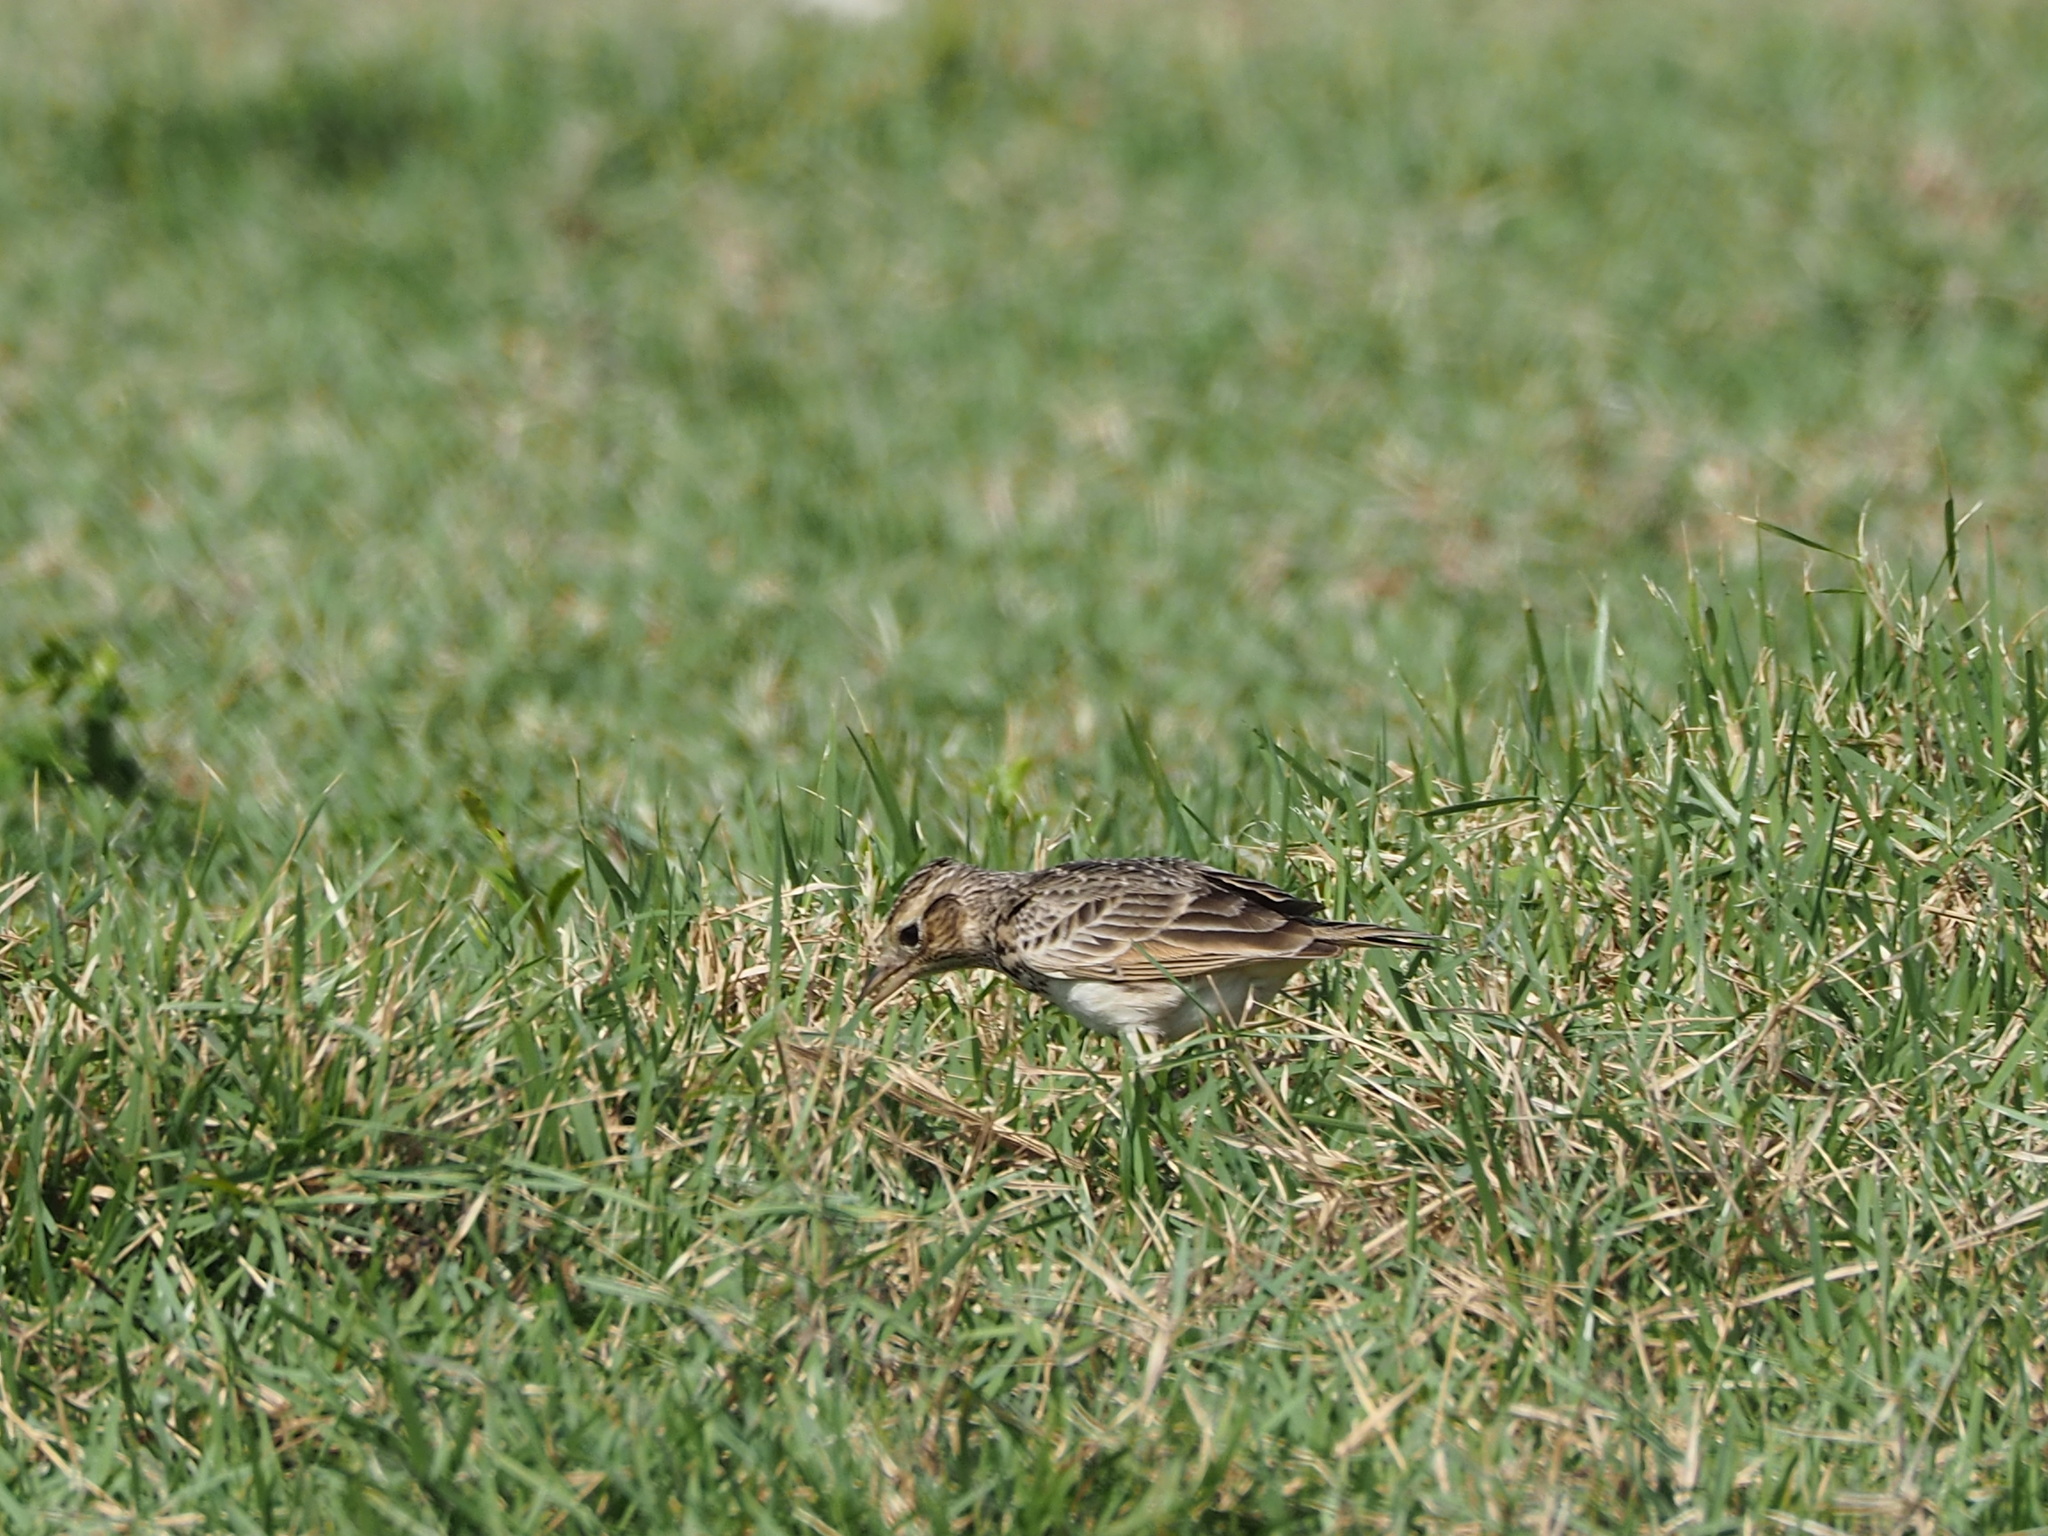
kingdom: Animalia
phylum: Chordata
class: Aves
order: Passeriformes
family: Alaudidae
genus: Alauda
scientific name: Alauda gulgula
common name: Oriental skylark
